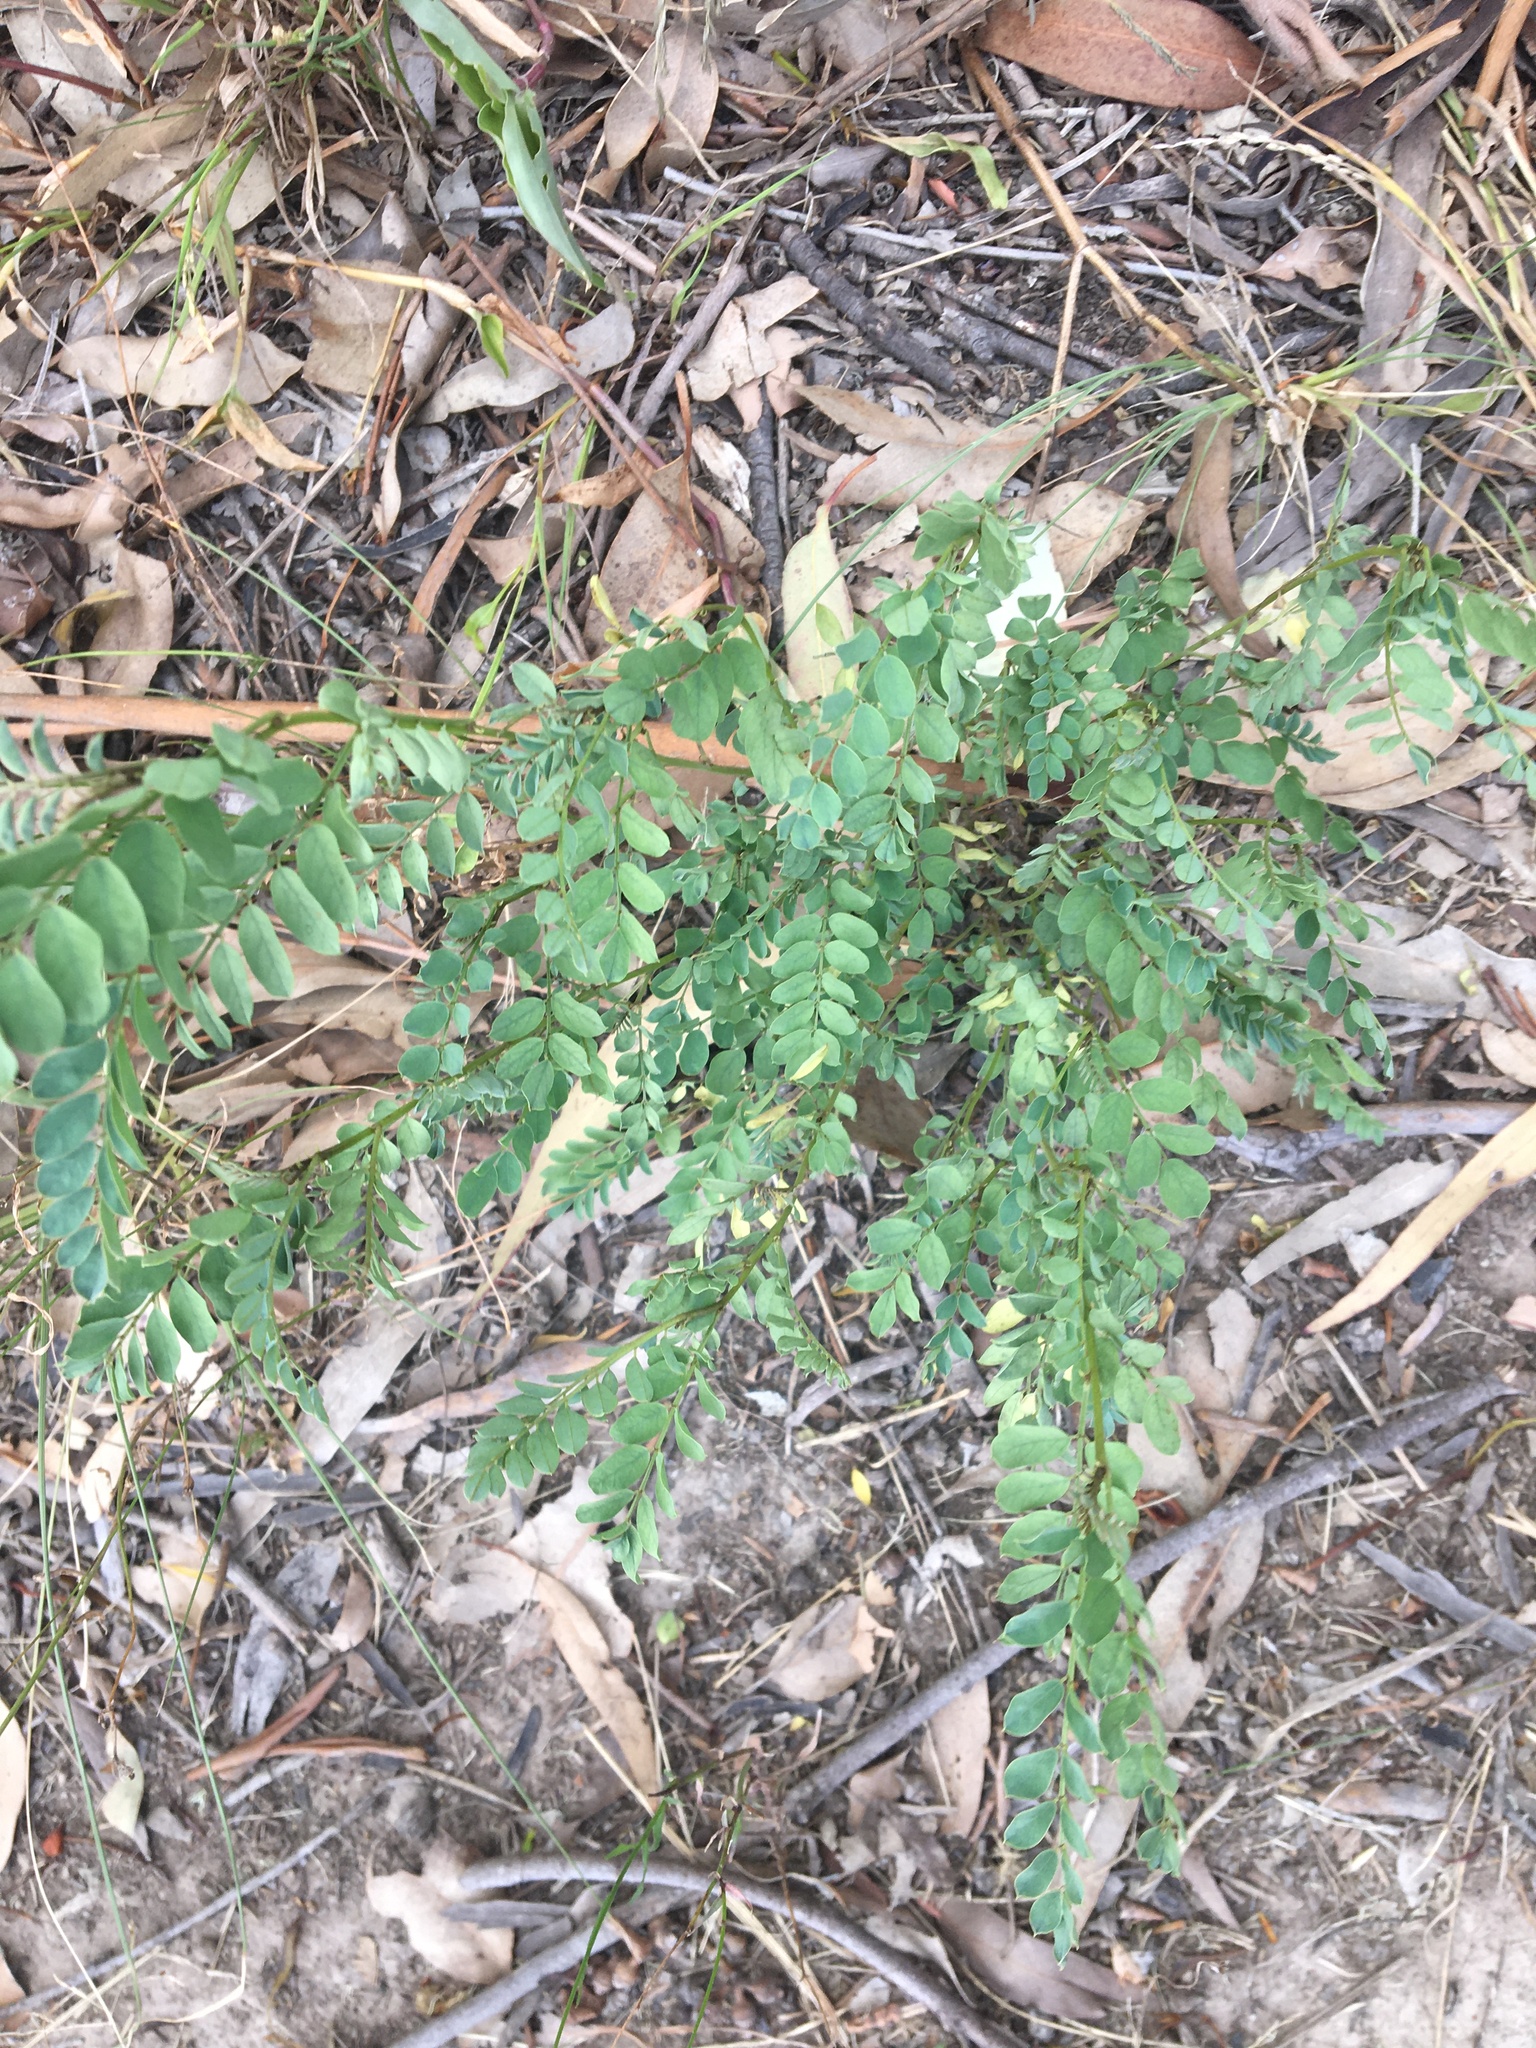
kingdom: Plantae
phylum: Tracheophyta
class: Magnoliopsida
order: Fabales
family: Fabaceae
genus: Indigofera
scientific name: Indigofera australis
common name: Australian indigo
